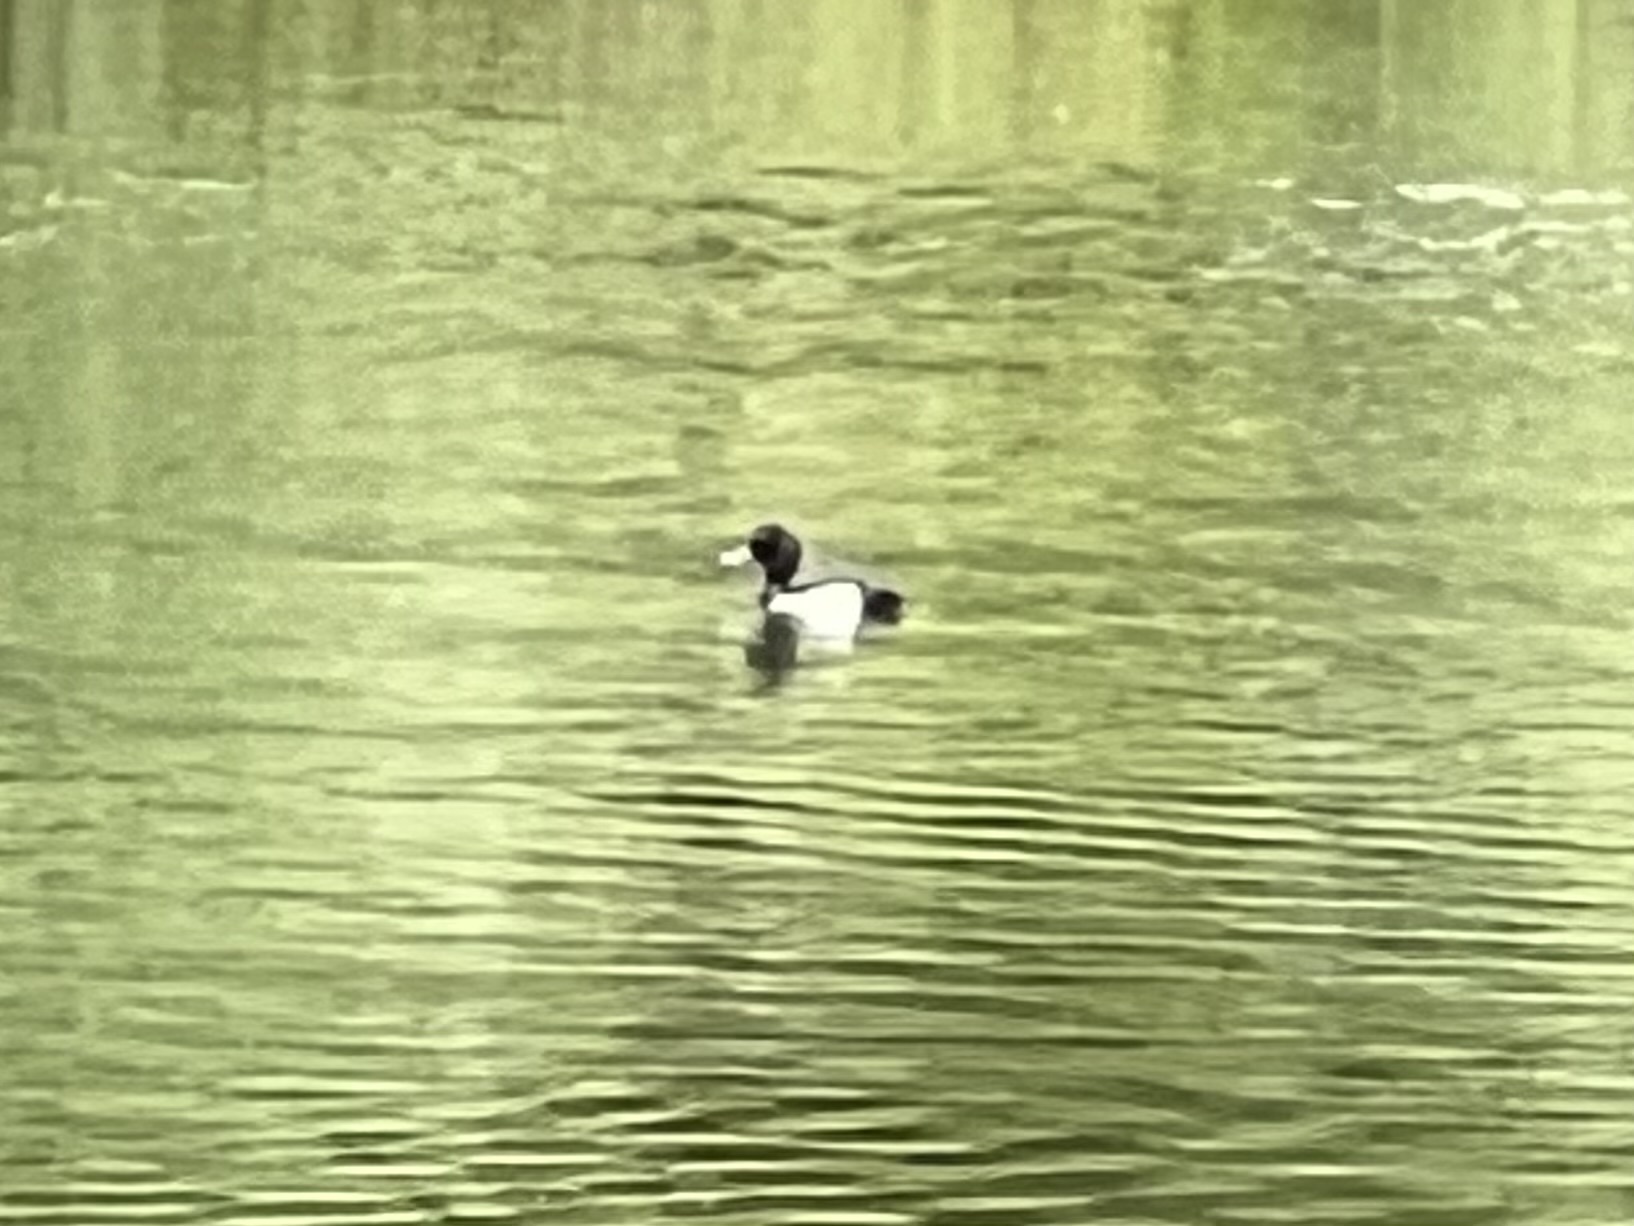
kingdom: Animalia
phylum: Chordata
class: Aves
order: Anseriformes
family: Anatidae
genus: Aythya
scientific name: Aythya fuligula
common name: Tufted duck
